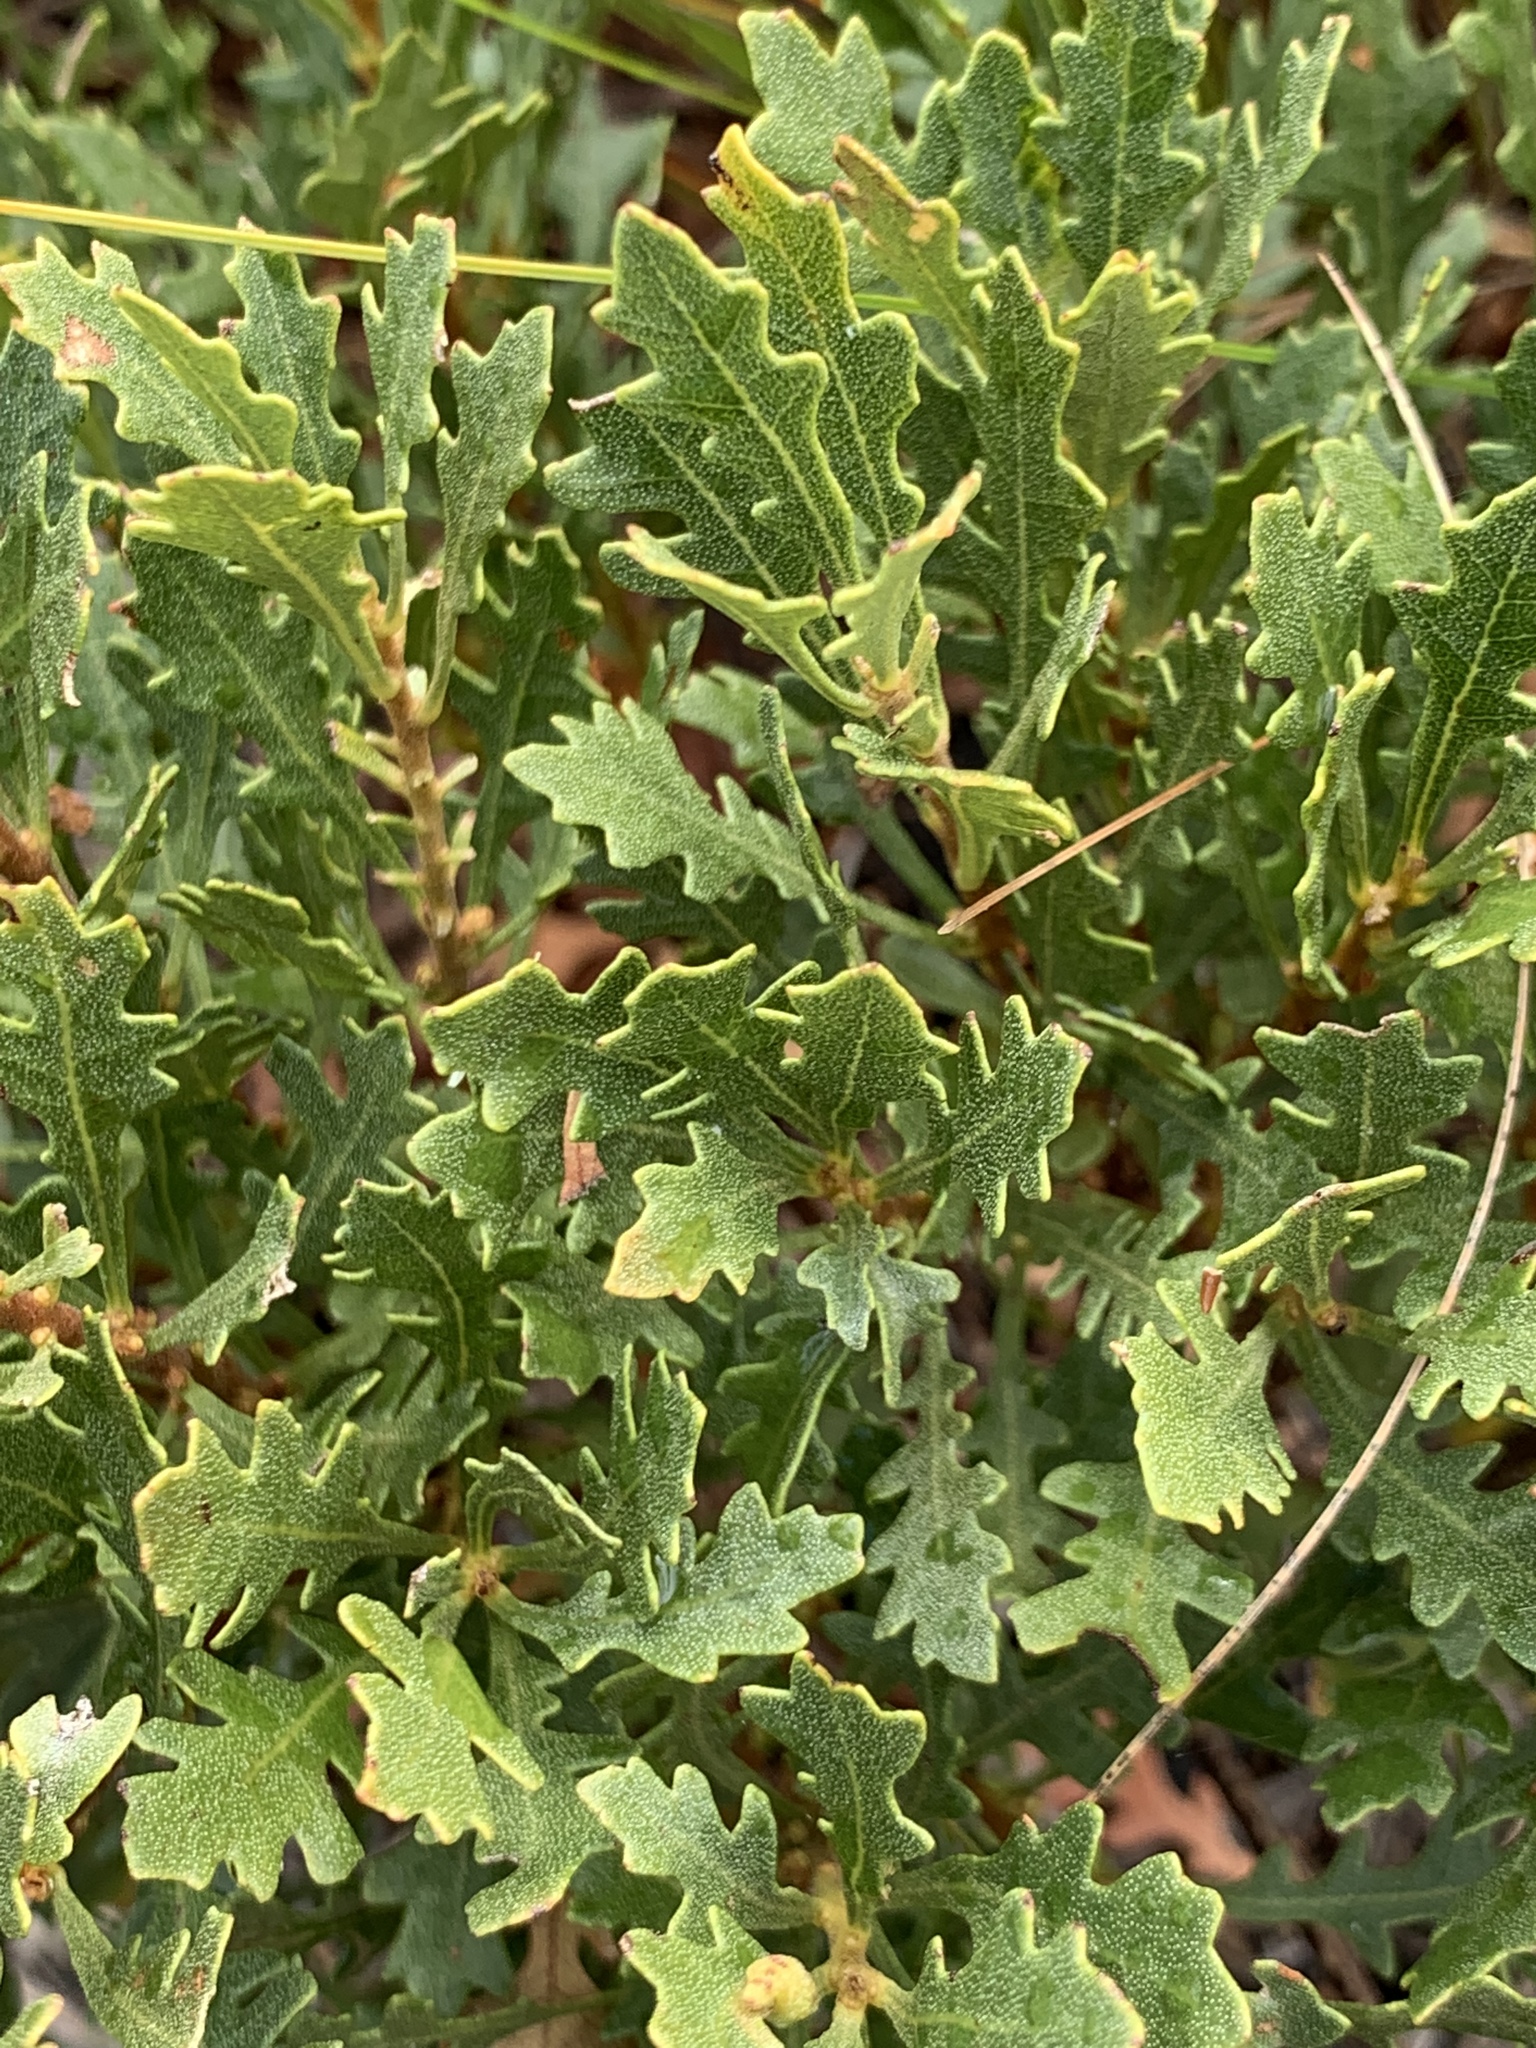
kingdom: Plantae
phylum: Tracheophyta
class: Magnoliopsida
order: Fagales
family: Myricaceae
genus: Morella
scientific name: Morella quercifolia
